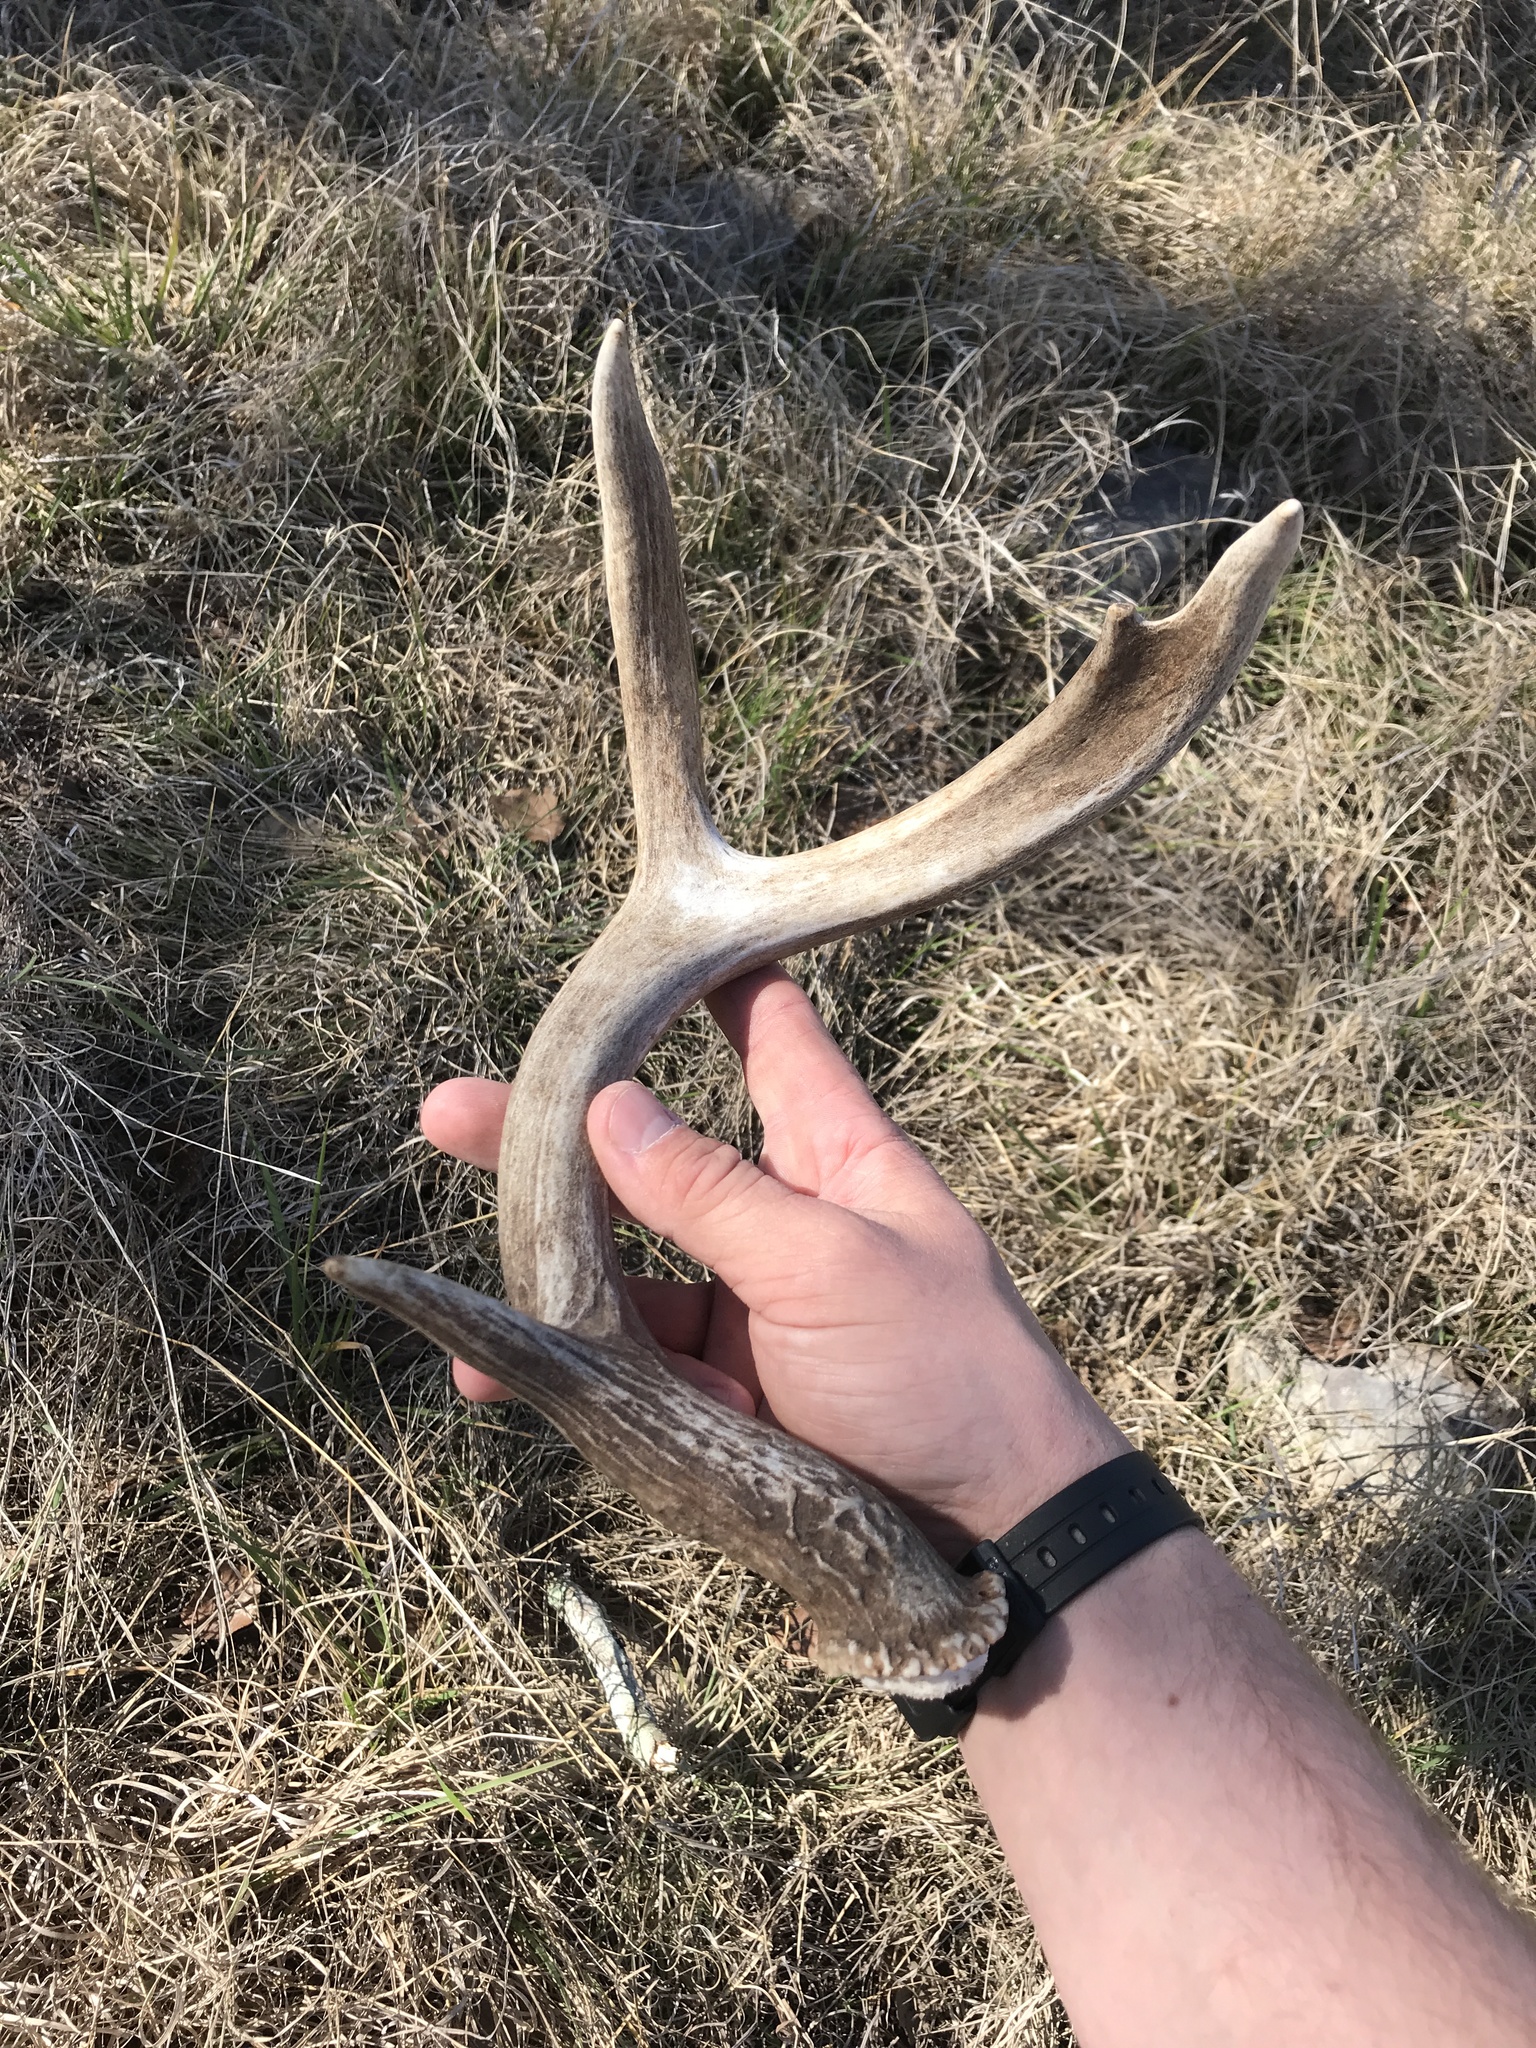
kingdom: Animalia
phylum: Chordata
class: Mammalia
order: Artiodactyla
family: Cervidae
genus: Odocoileus
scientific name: Odocoileus virginianus
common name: White-tailed deer
